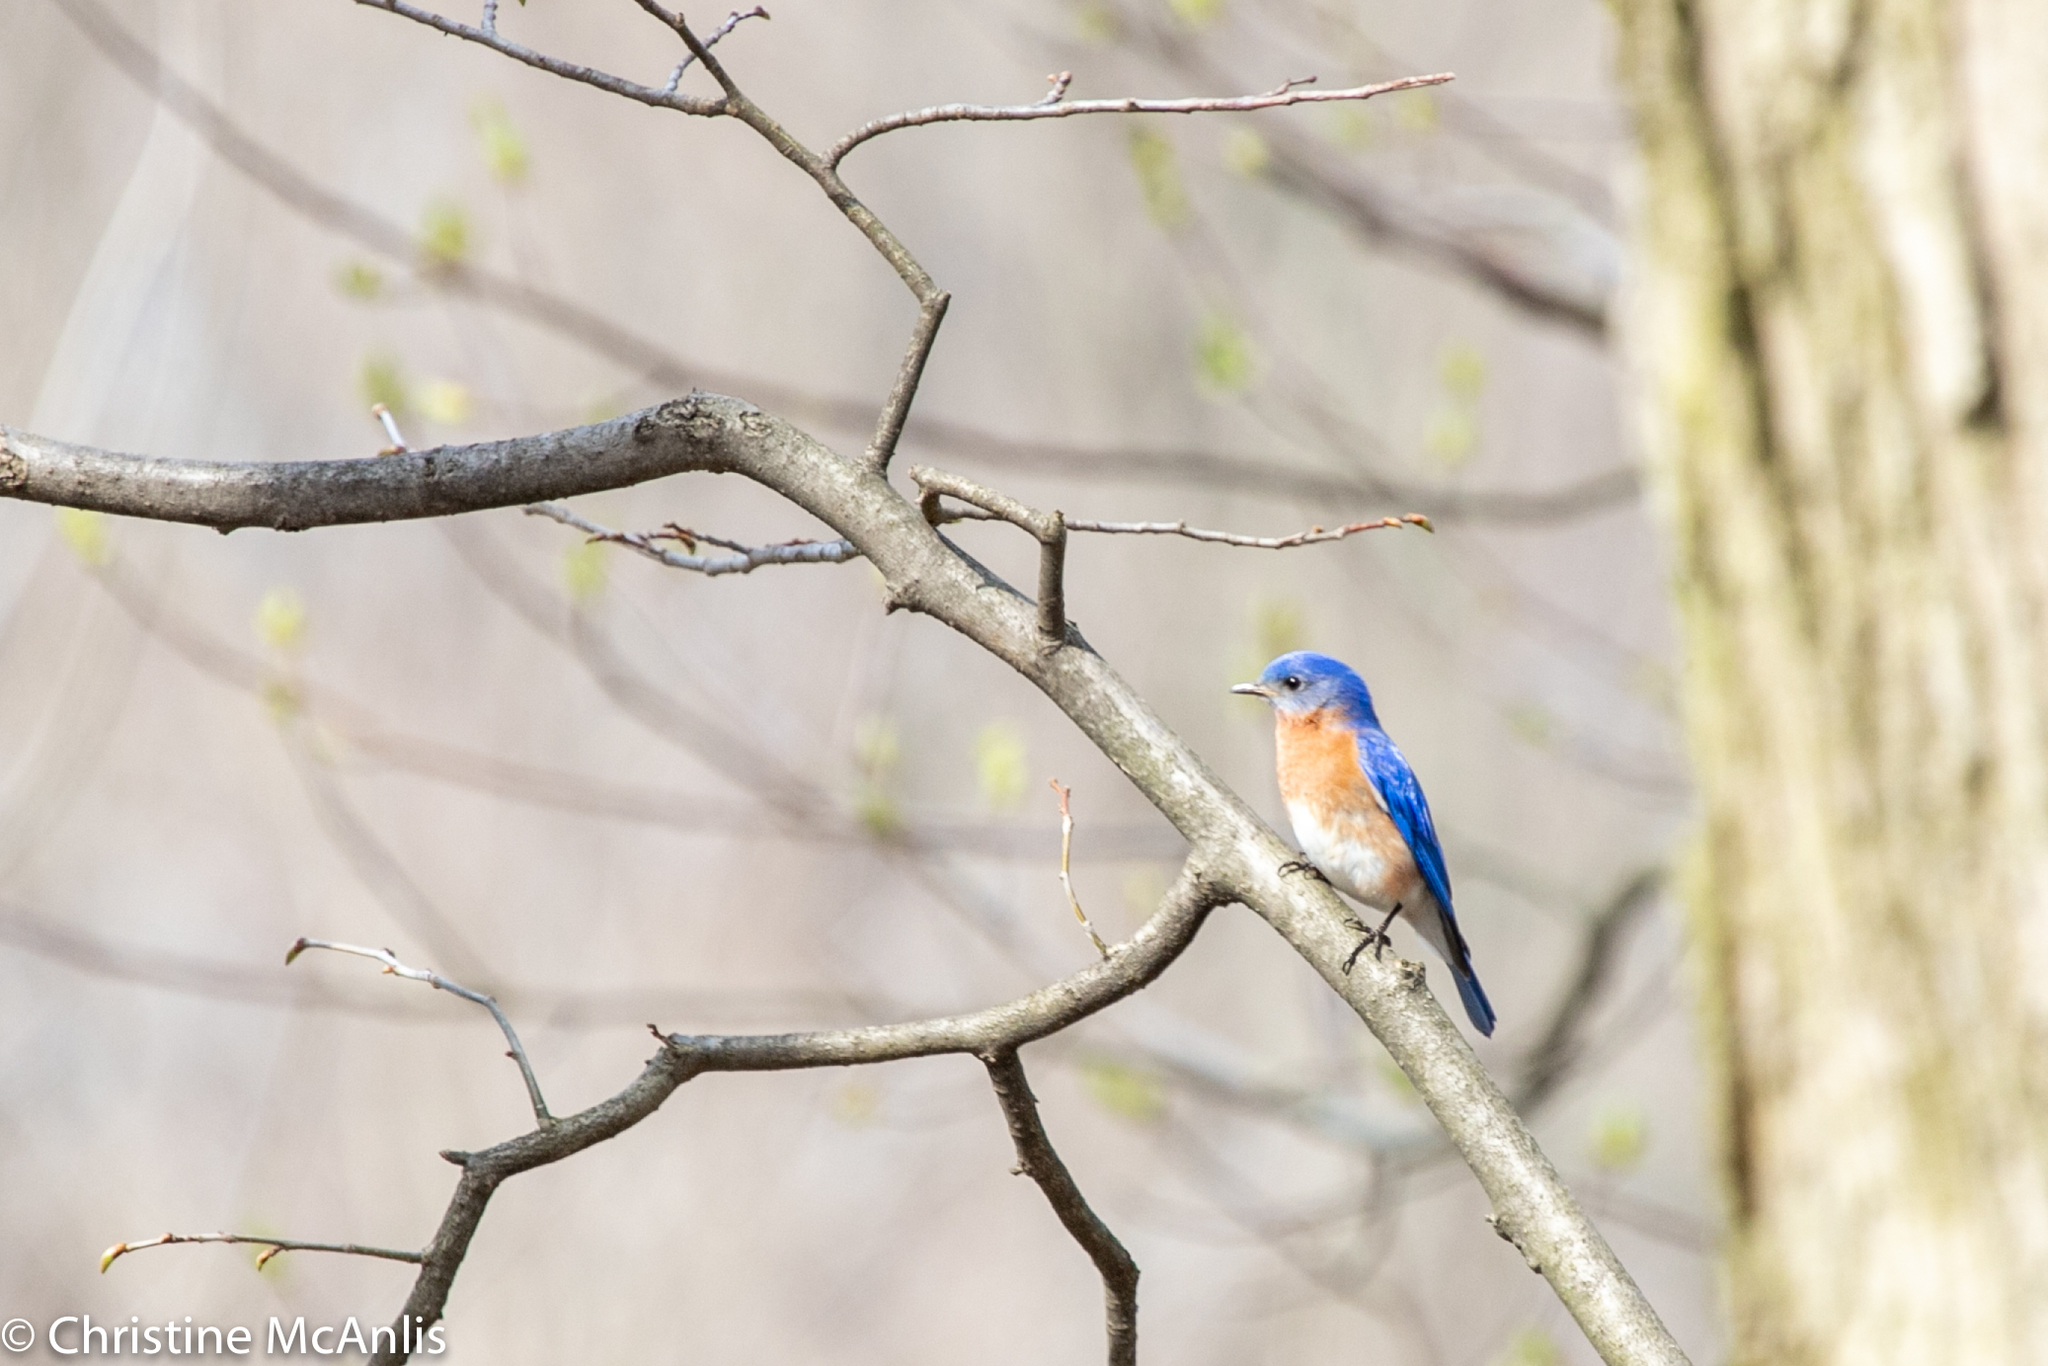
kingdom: Animalia
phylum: Chordata
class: Aves
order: Passeriformes
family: Turdidae
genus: Sialia
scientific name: Sialia sialis
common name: Eastern bluebird
